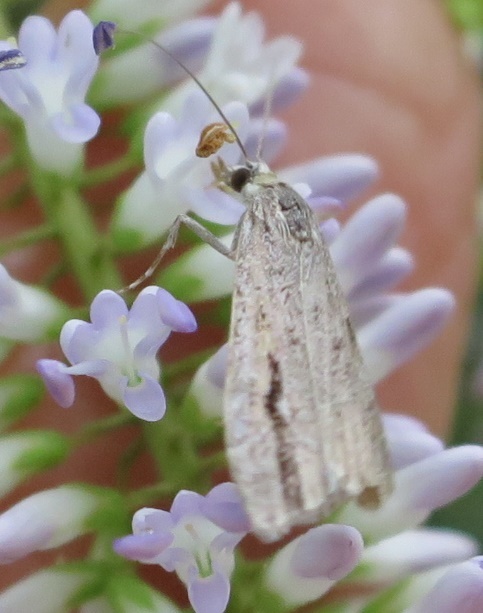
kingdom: Animalia
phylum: Arthropoda
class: Insecta
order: Lepidoptera
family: Crambidae
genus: Eudonia
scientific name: Eudonia bisinualis
